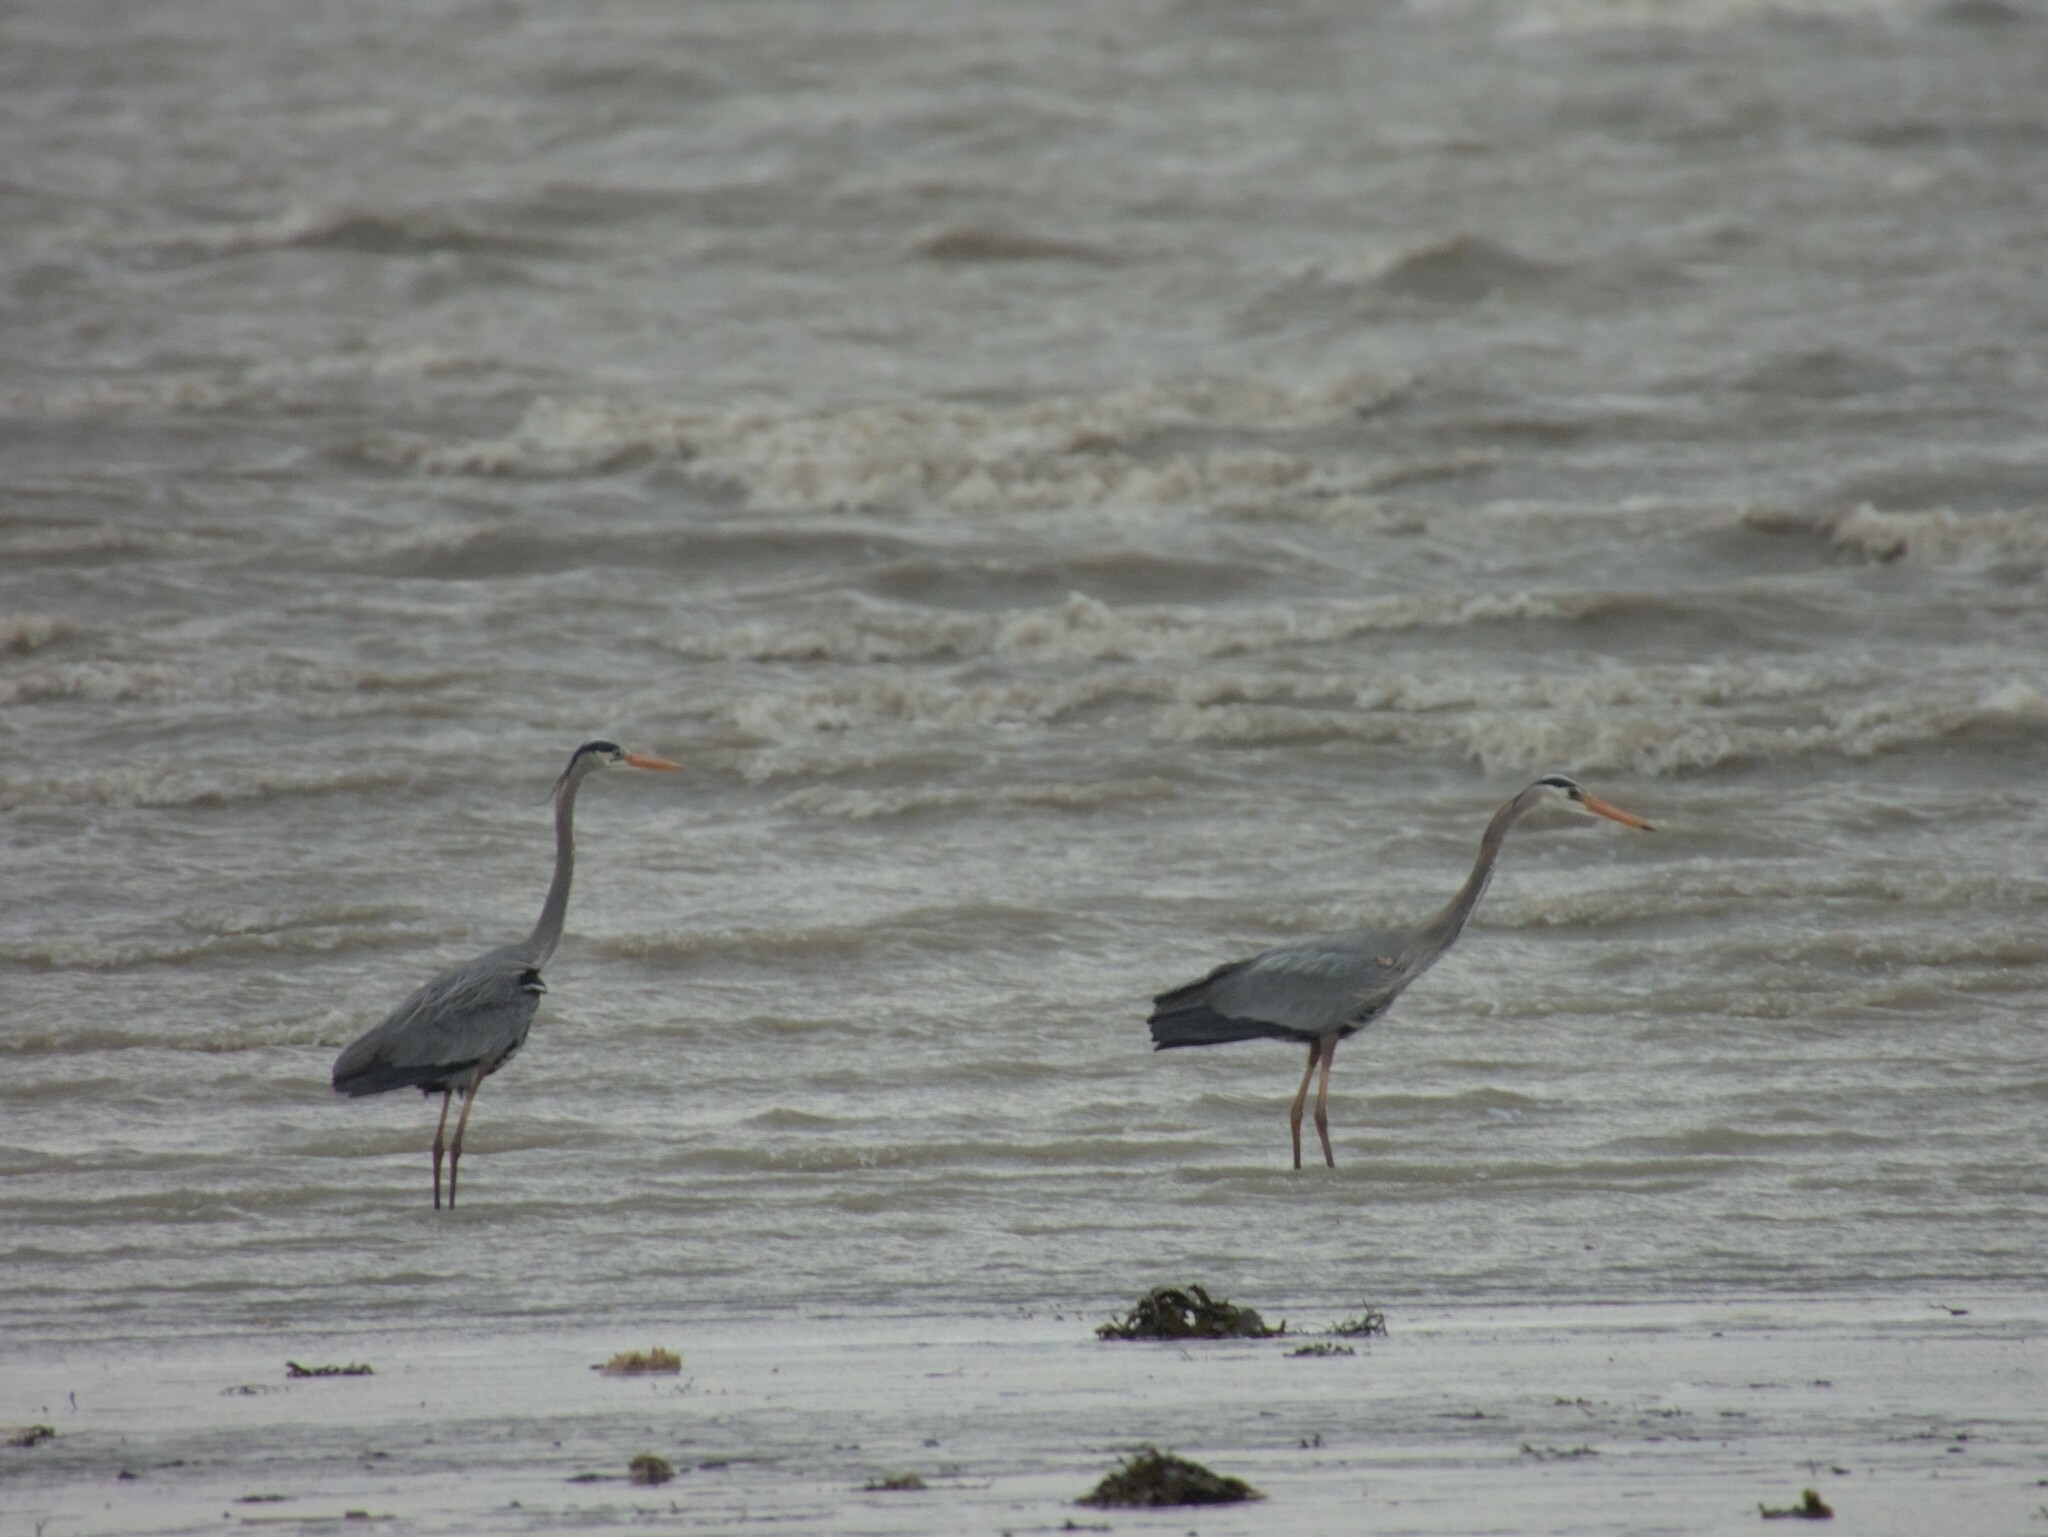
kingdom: Animalia
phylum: Chordata
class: Aves
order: Pelecaniformes
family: Ardeidae
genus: Ardea
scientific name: Ardea herodias
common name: Great blue heron
